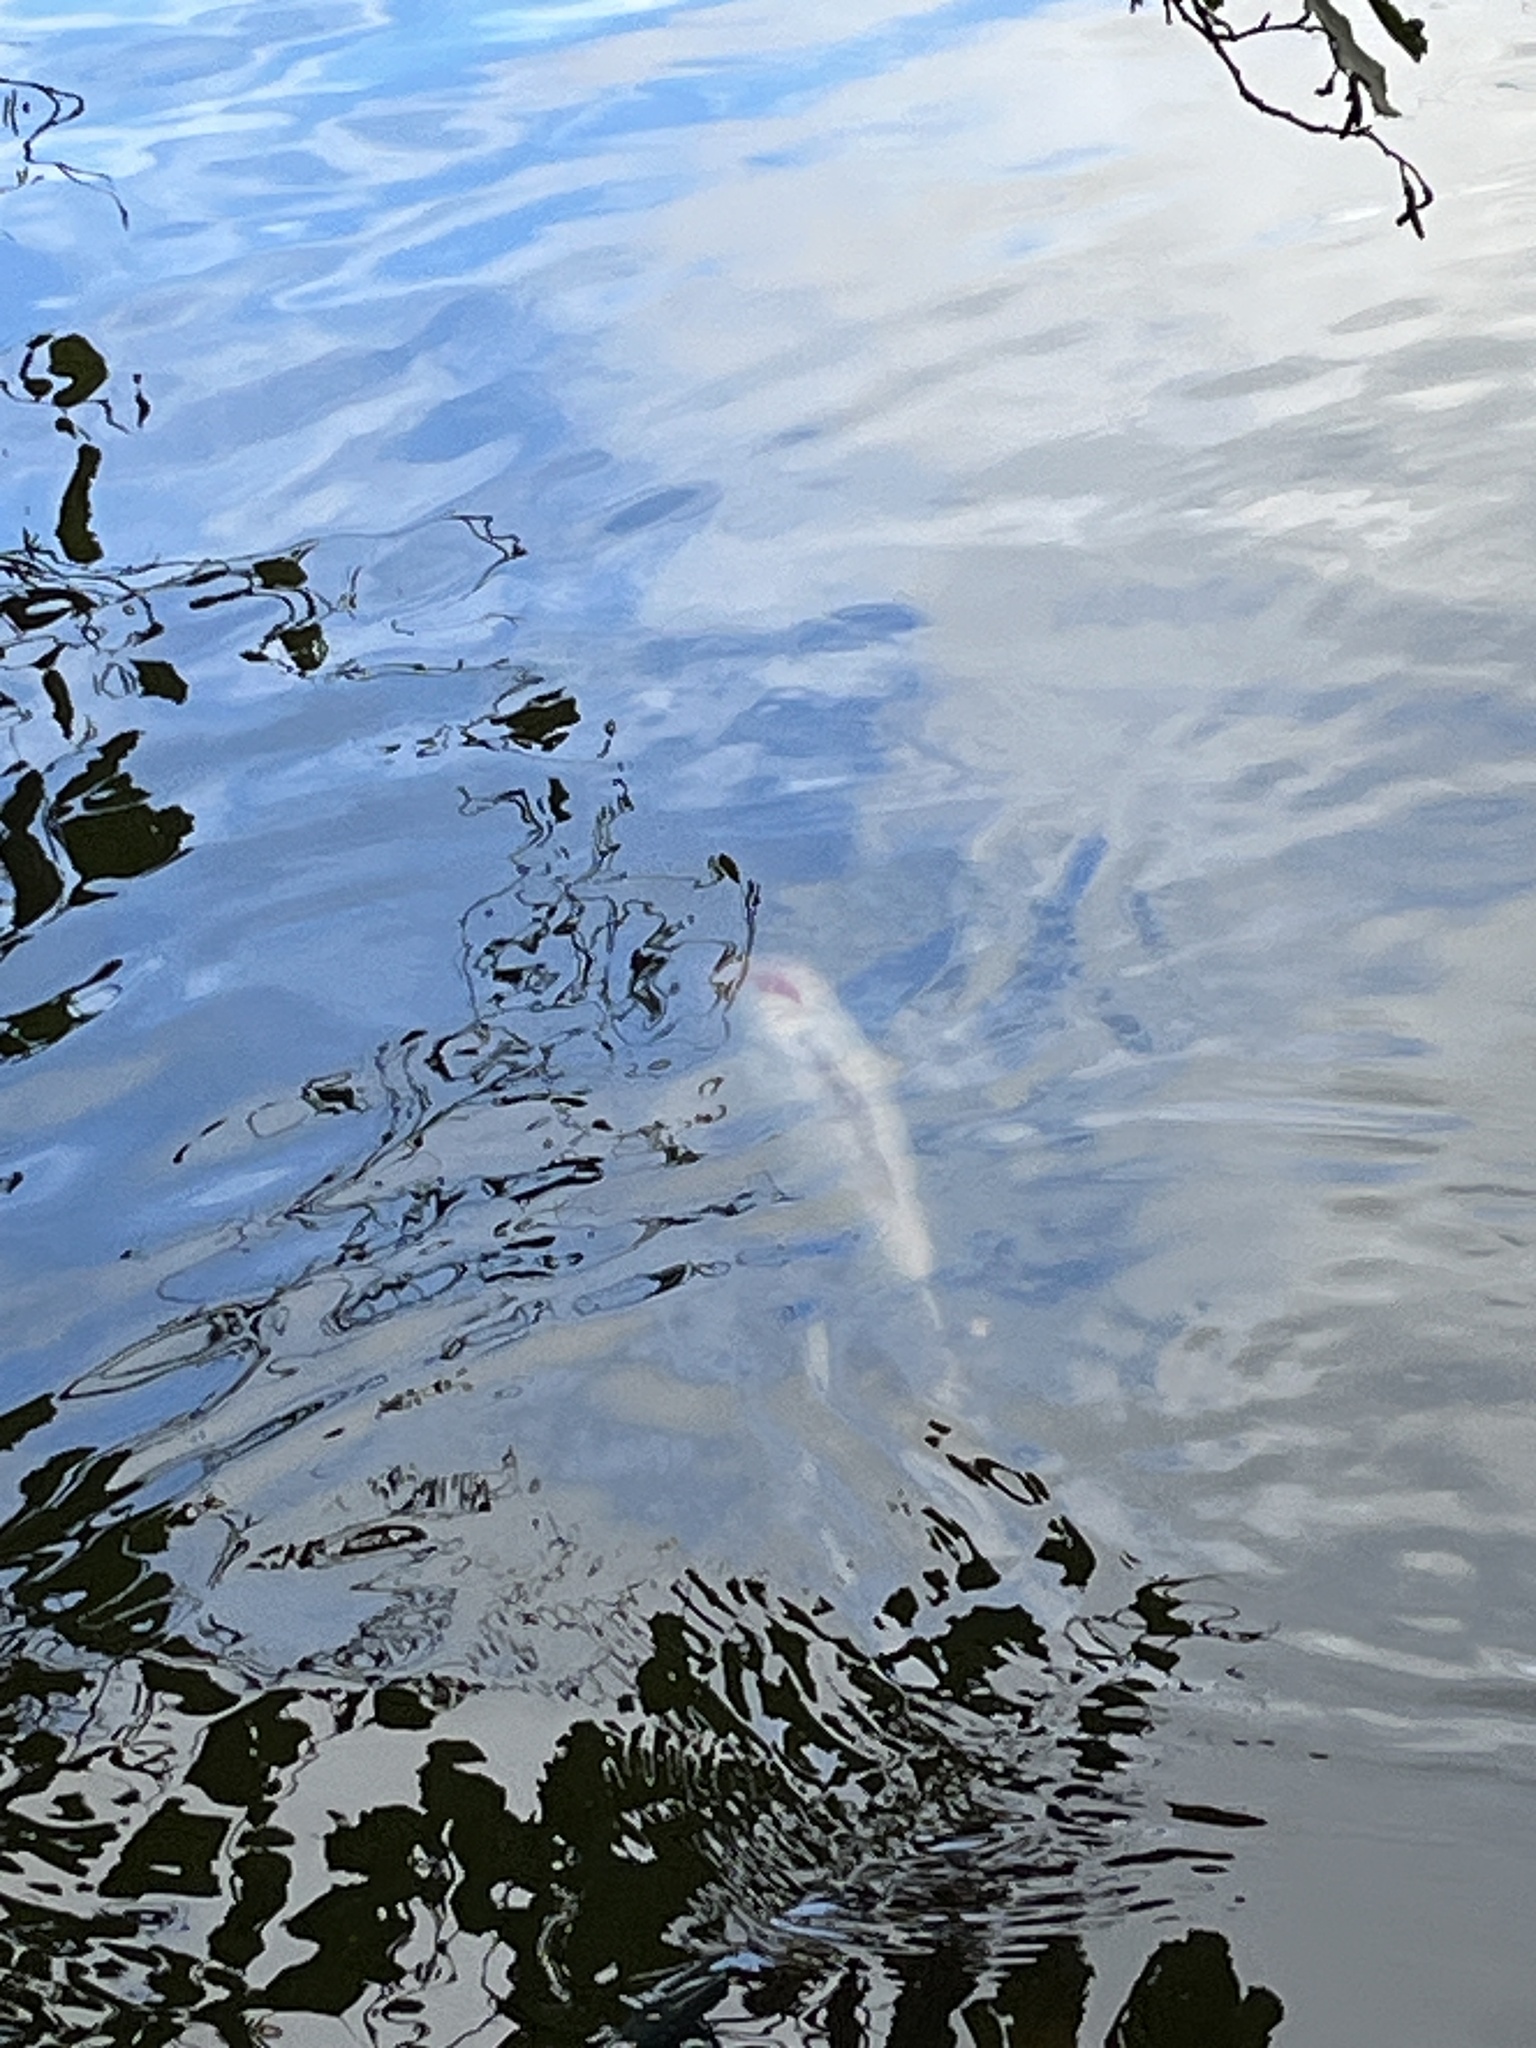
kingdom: Animalia
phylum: Chordata
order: Cypriniformes
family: Cyprinidae
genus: Cyprinus
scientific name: Cyprinus rubrofuscus
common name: Koi
